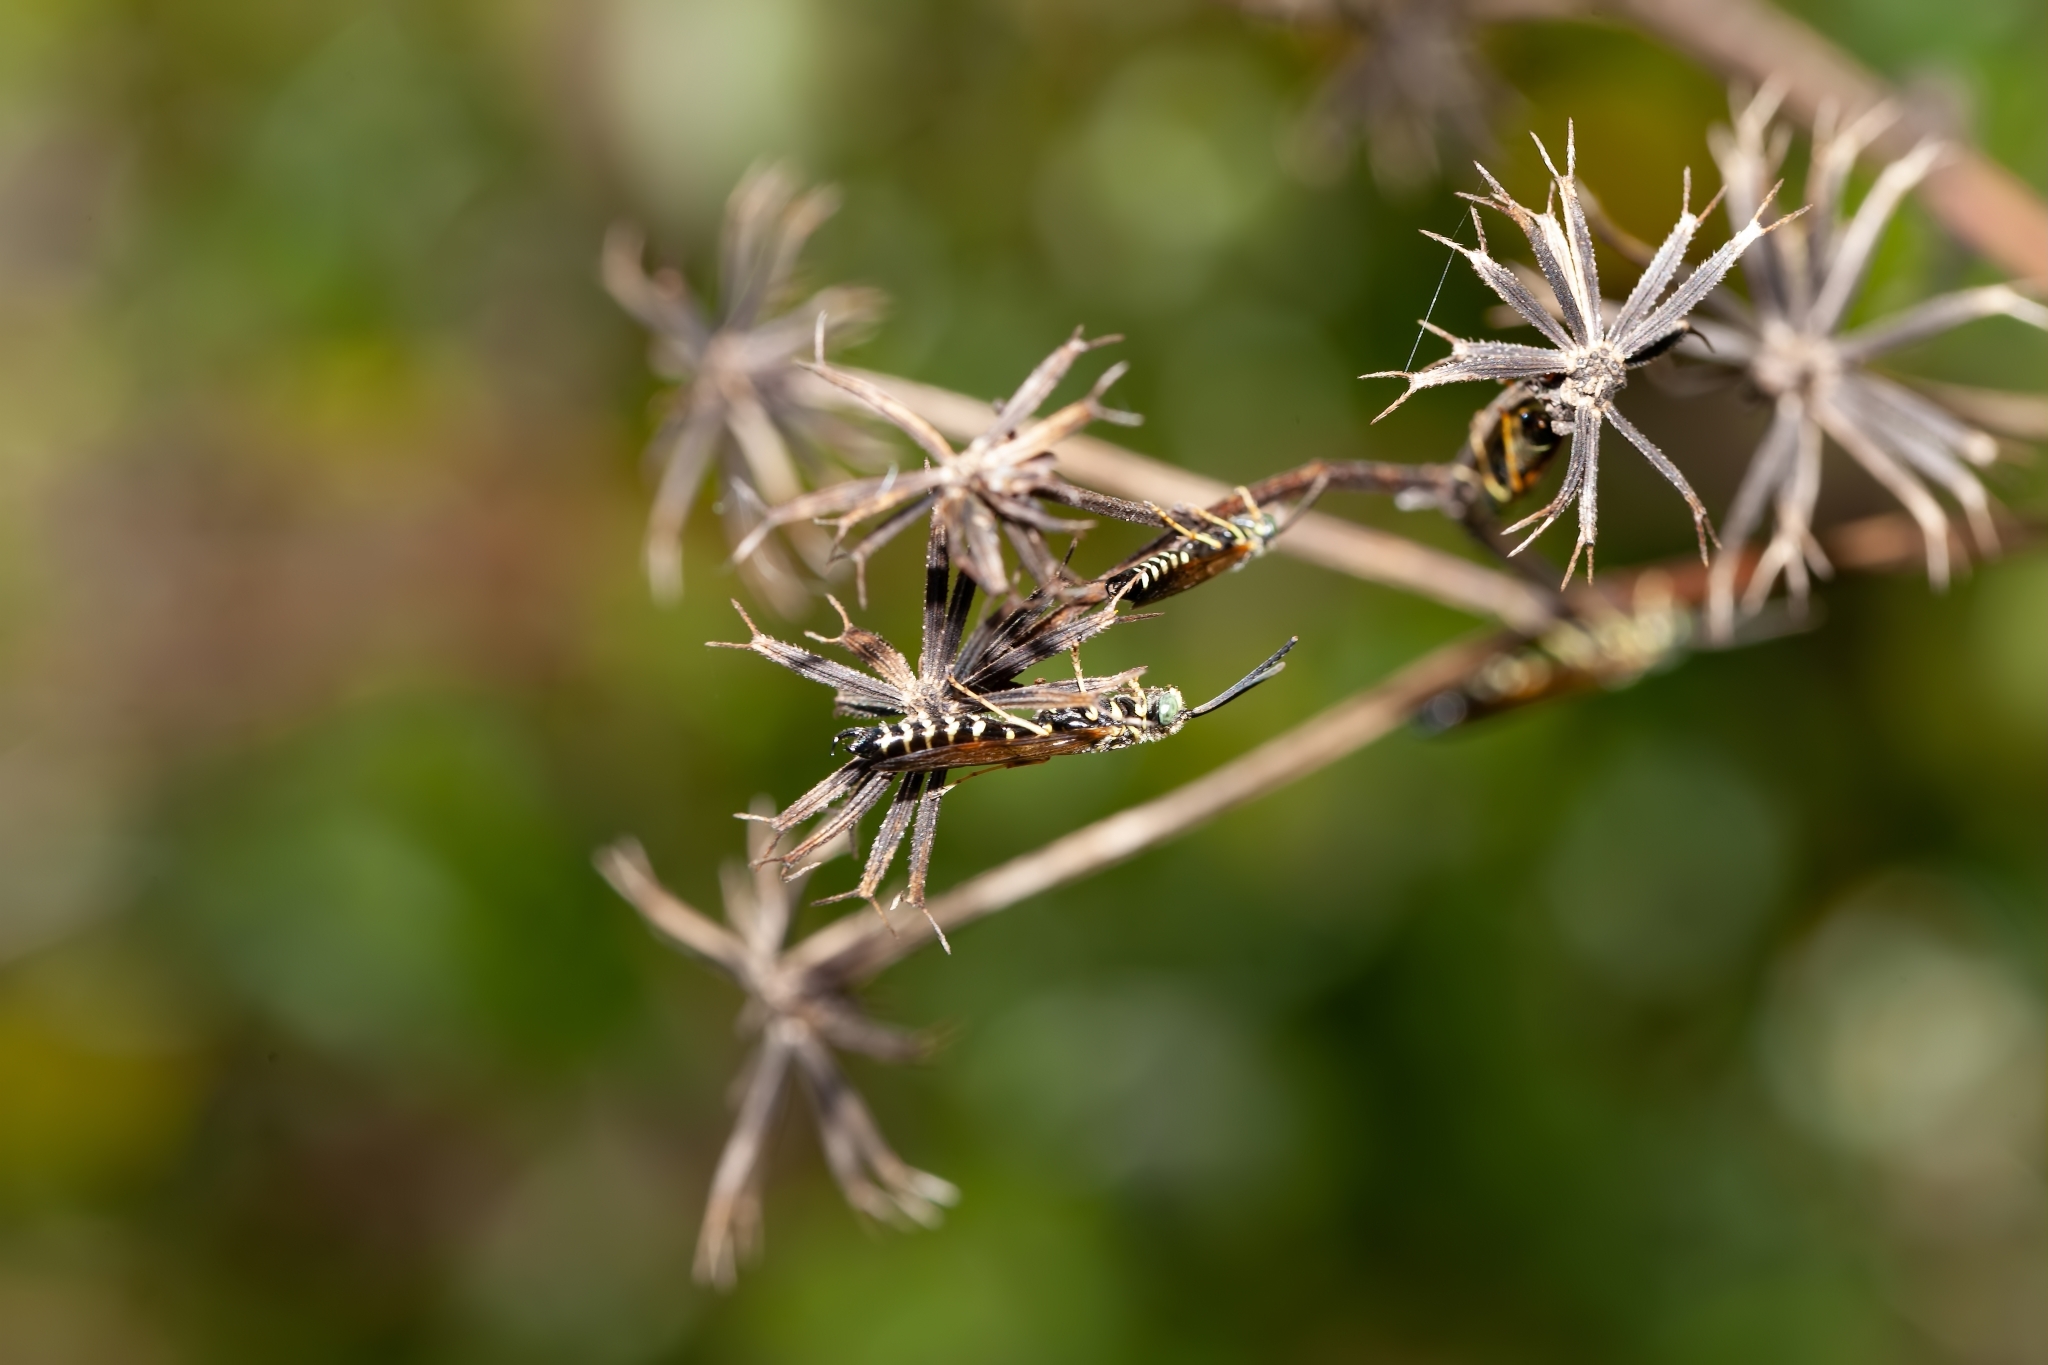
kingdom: Animalia
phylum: Arthropoda
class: Insecta
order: Hymenoptera
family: Tiphiidae
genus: Myzinum
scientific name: Myzinum
